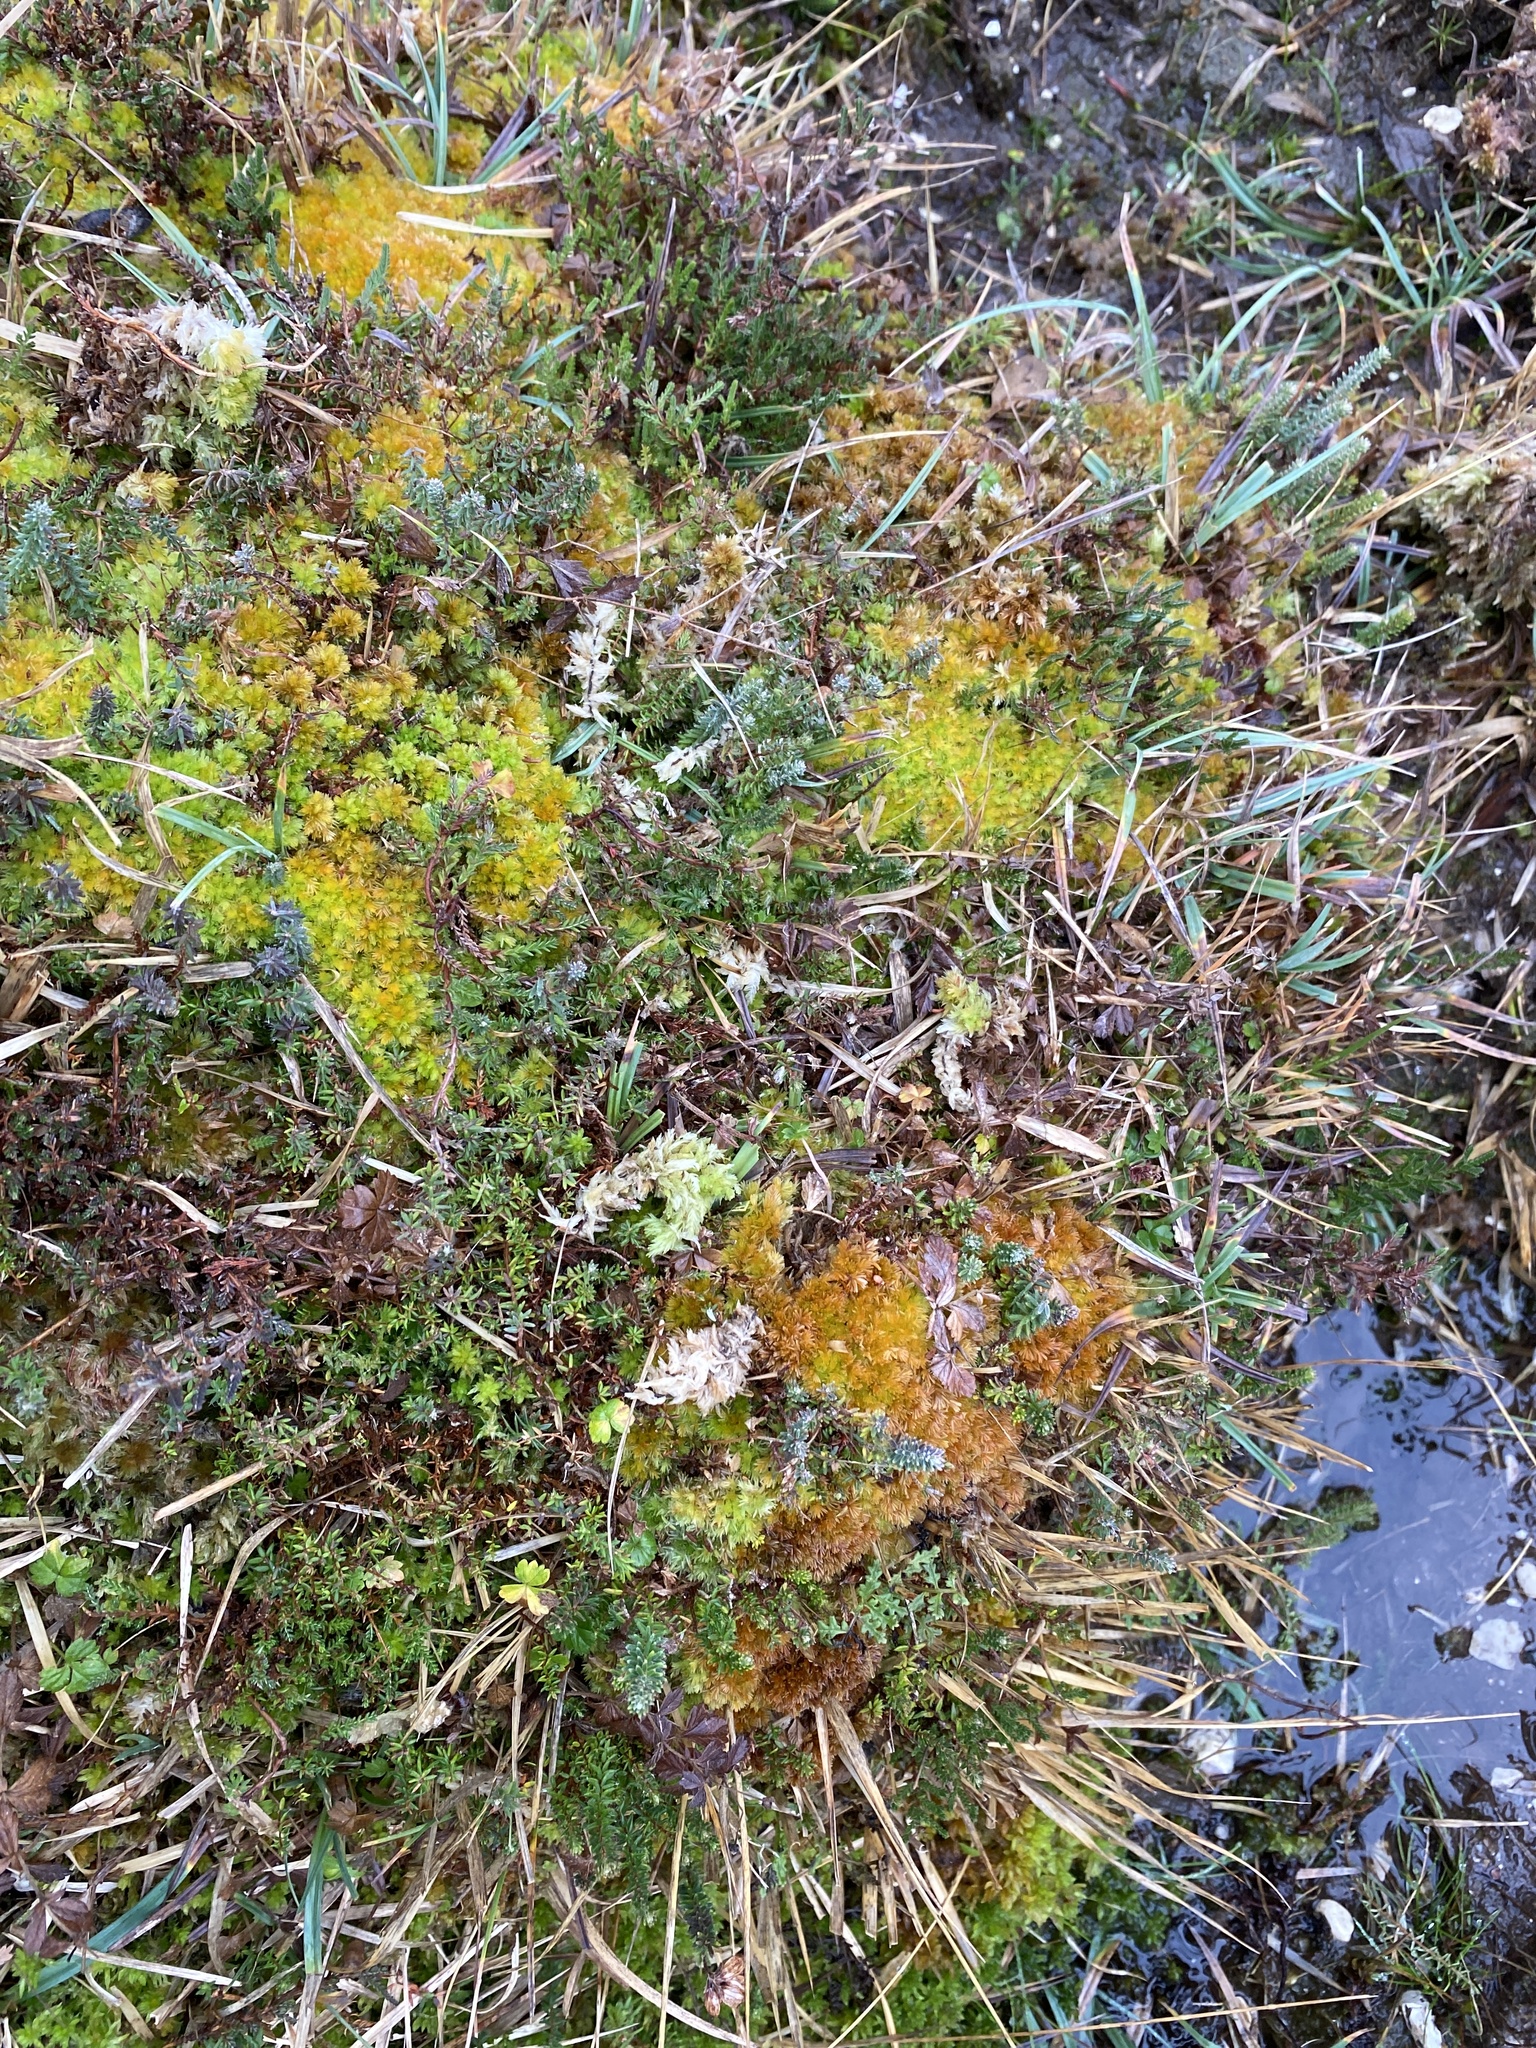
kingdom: Plantae
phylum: Bryophyta
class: Sphagnopsida
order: Sphagnales
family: Sphagnaceae
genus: Sphagnum
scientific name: Sphagnum compactum
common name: Compact peat moss
